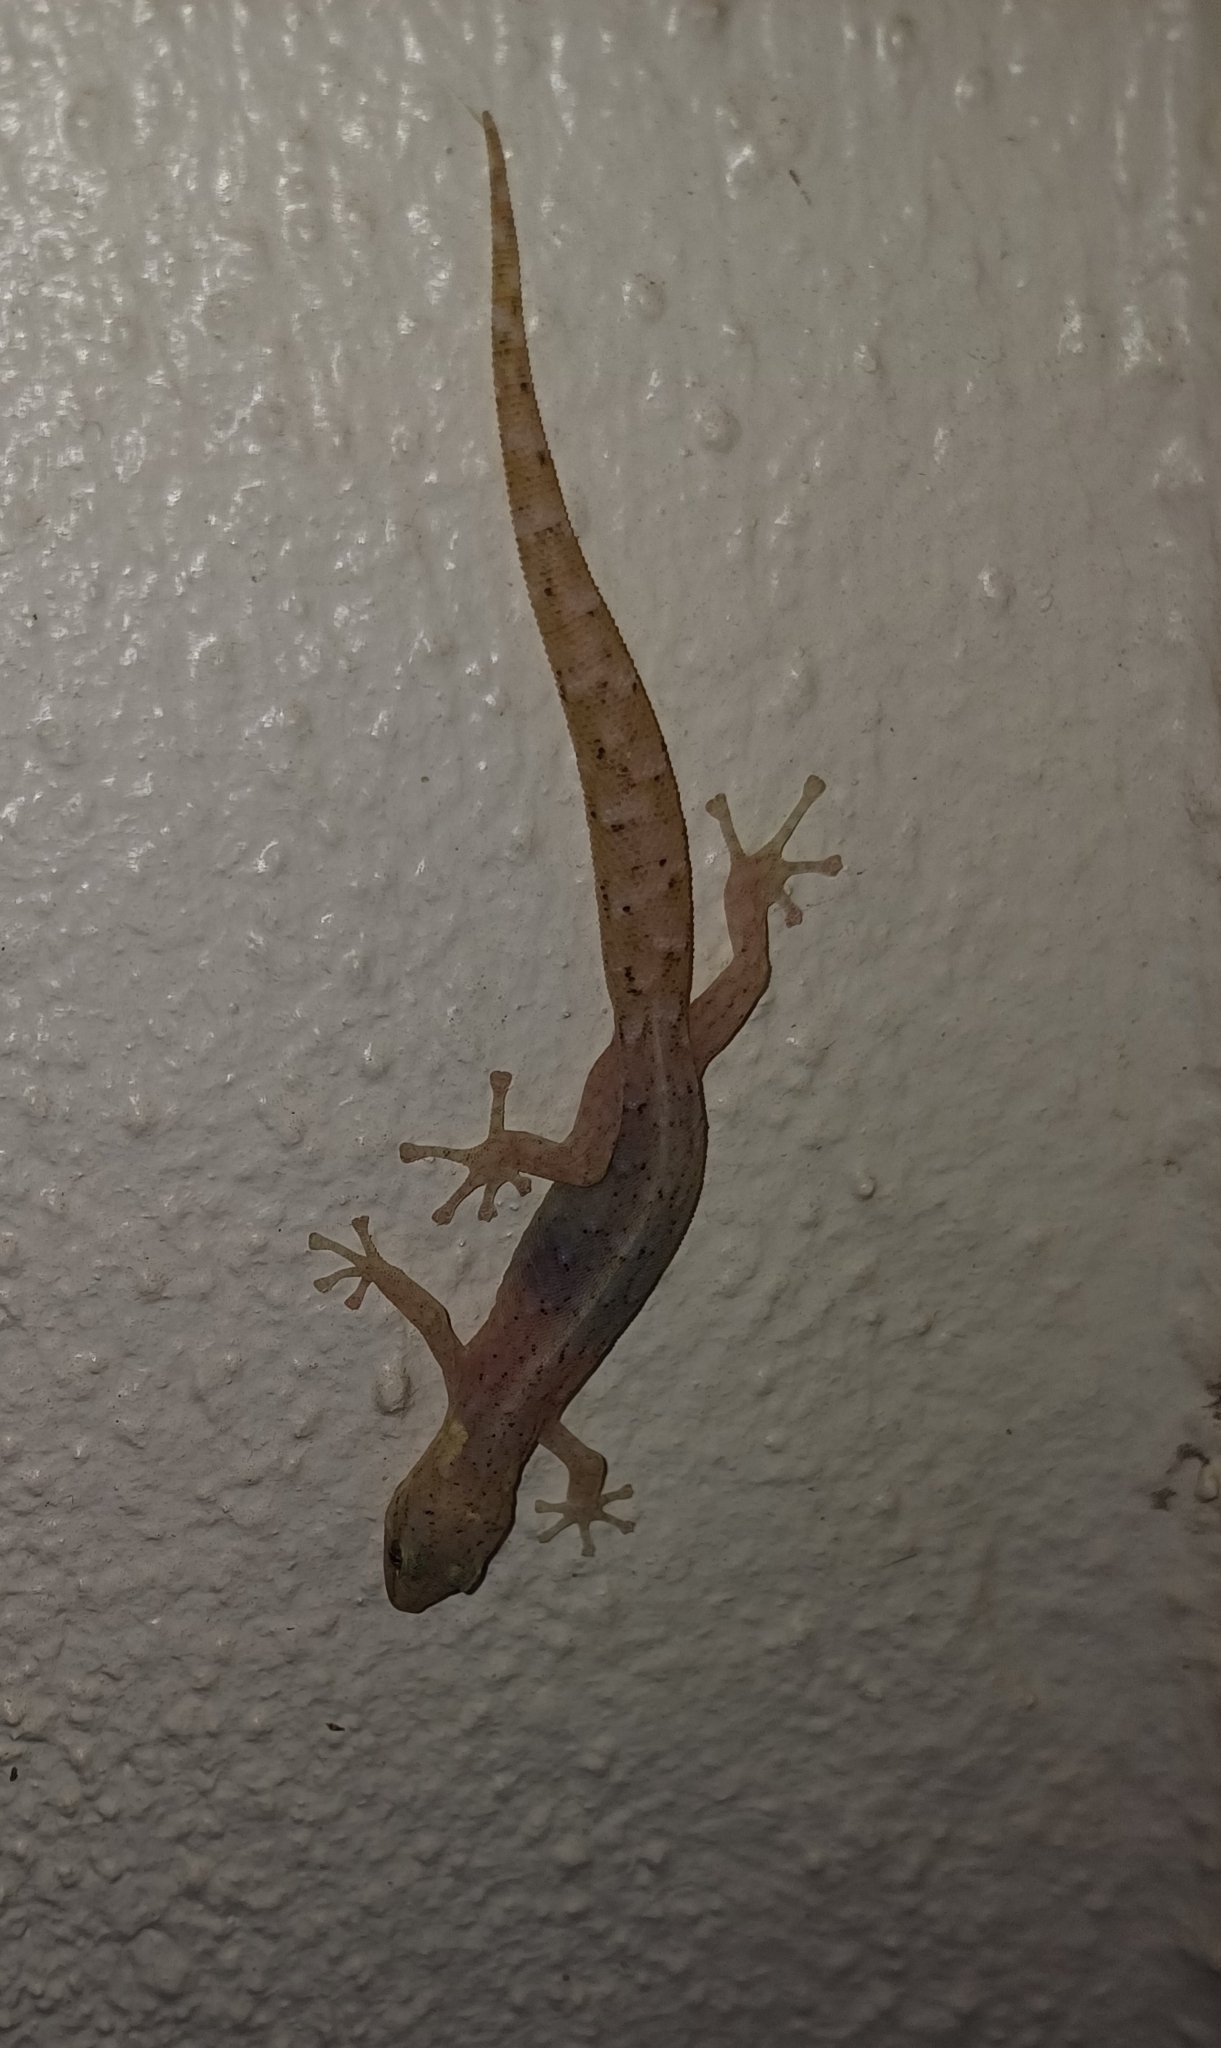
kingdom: Animalia
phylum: Chordata
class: Squamata
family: Gekkonidae
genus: Afrogecko
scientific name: Afrogecko porphyreus
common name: Marbled leaf-toed gecko
